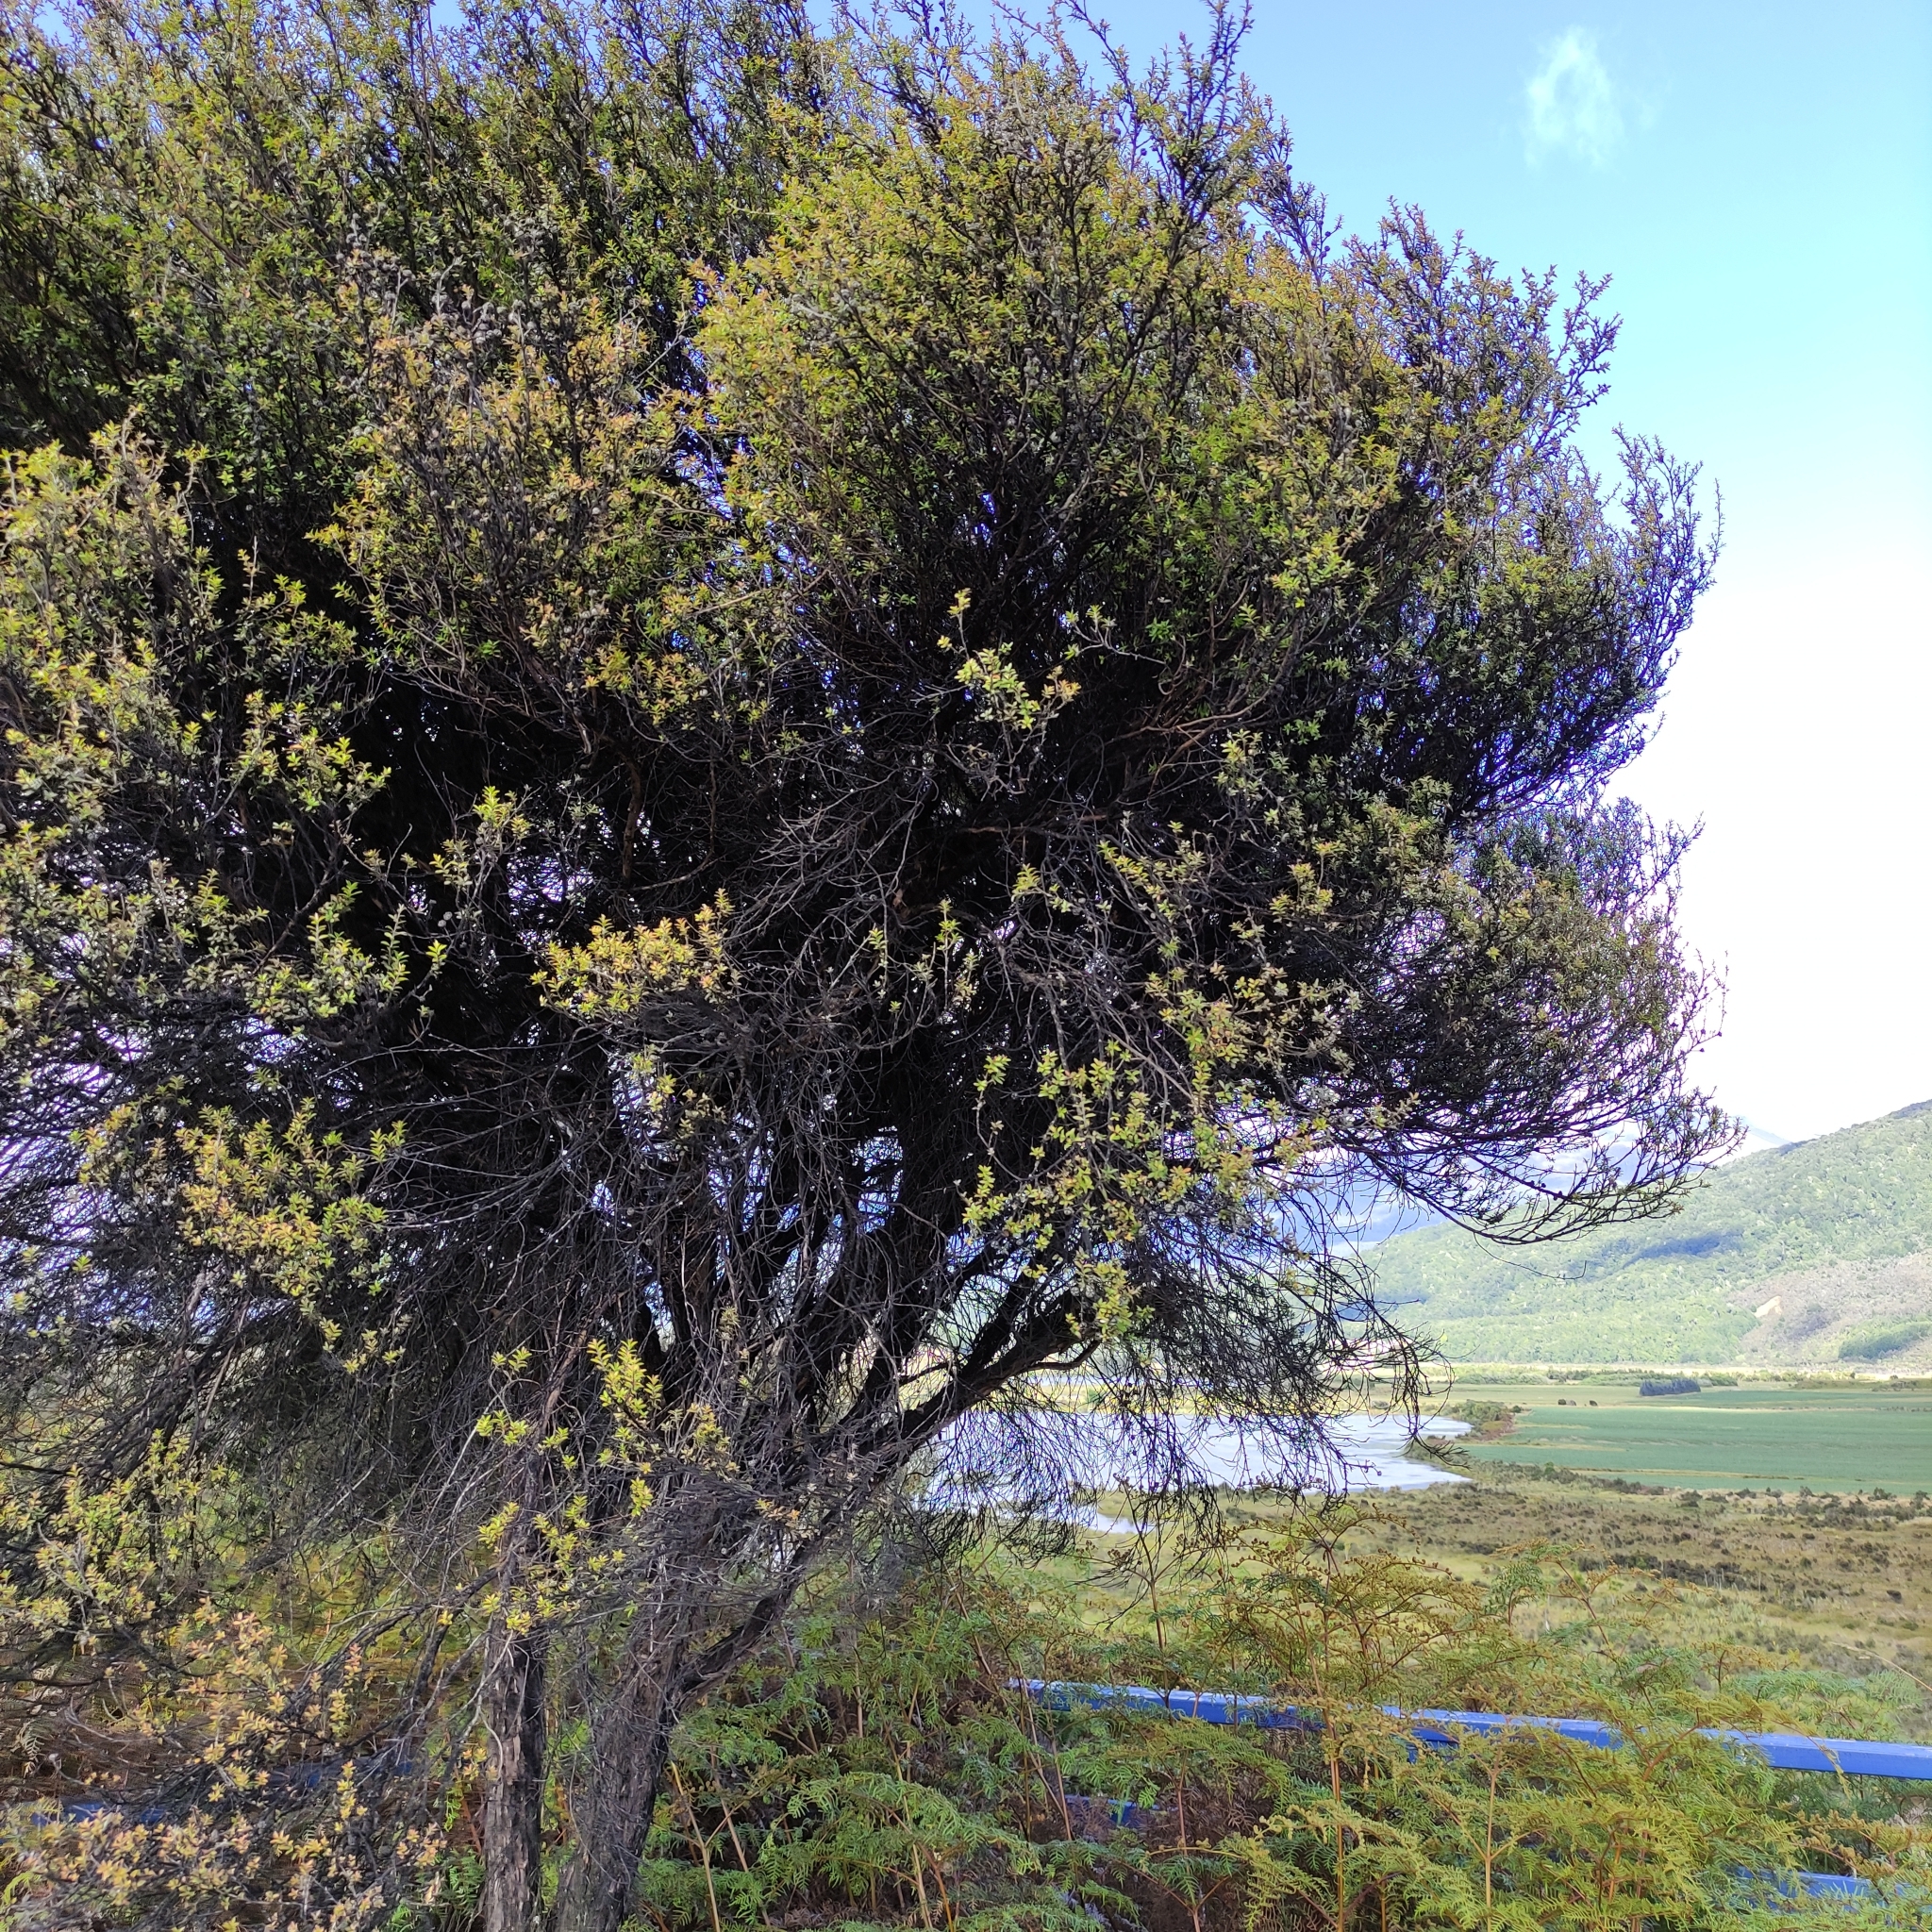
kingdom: Plantae
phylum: Tracheophyta
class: Magnoliopsida
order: Myrtales
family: Myrtaceae
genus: Leptospermum
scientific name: Leptospermum scoparium
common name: Broom tea-tree
